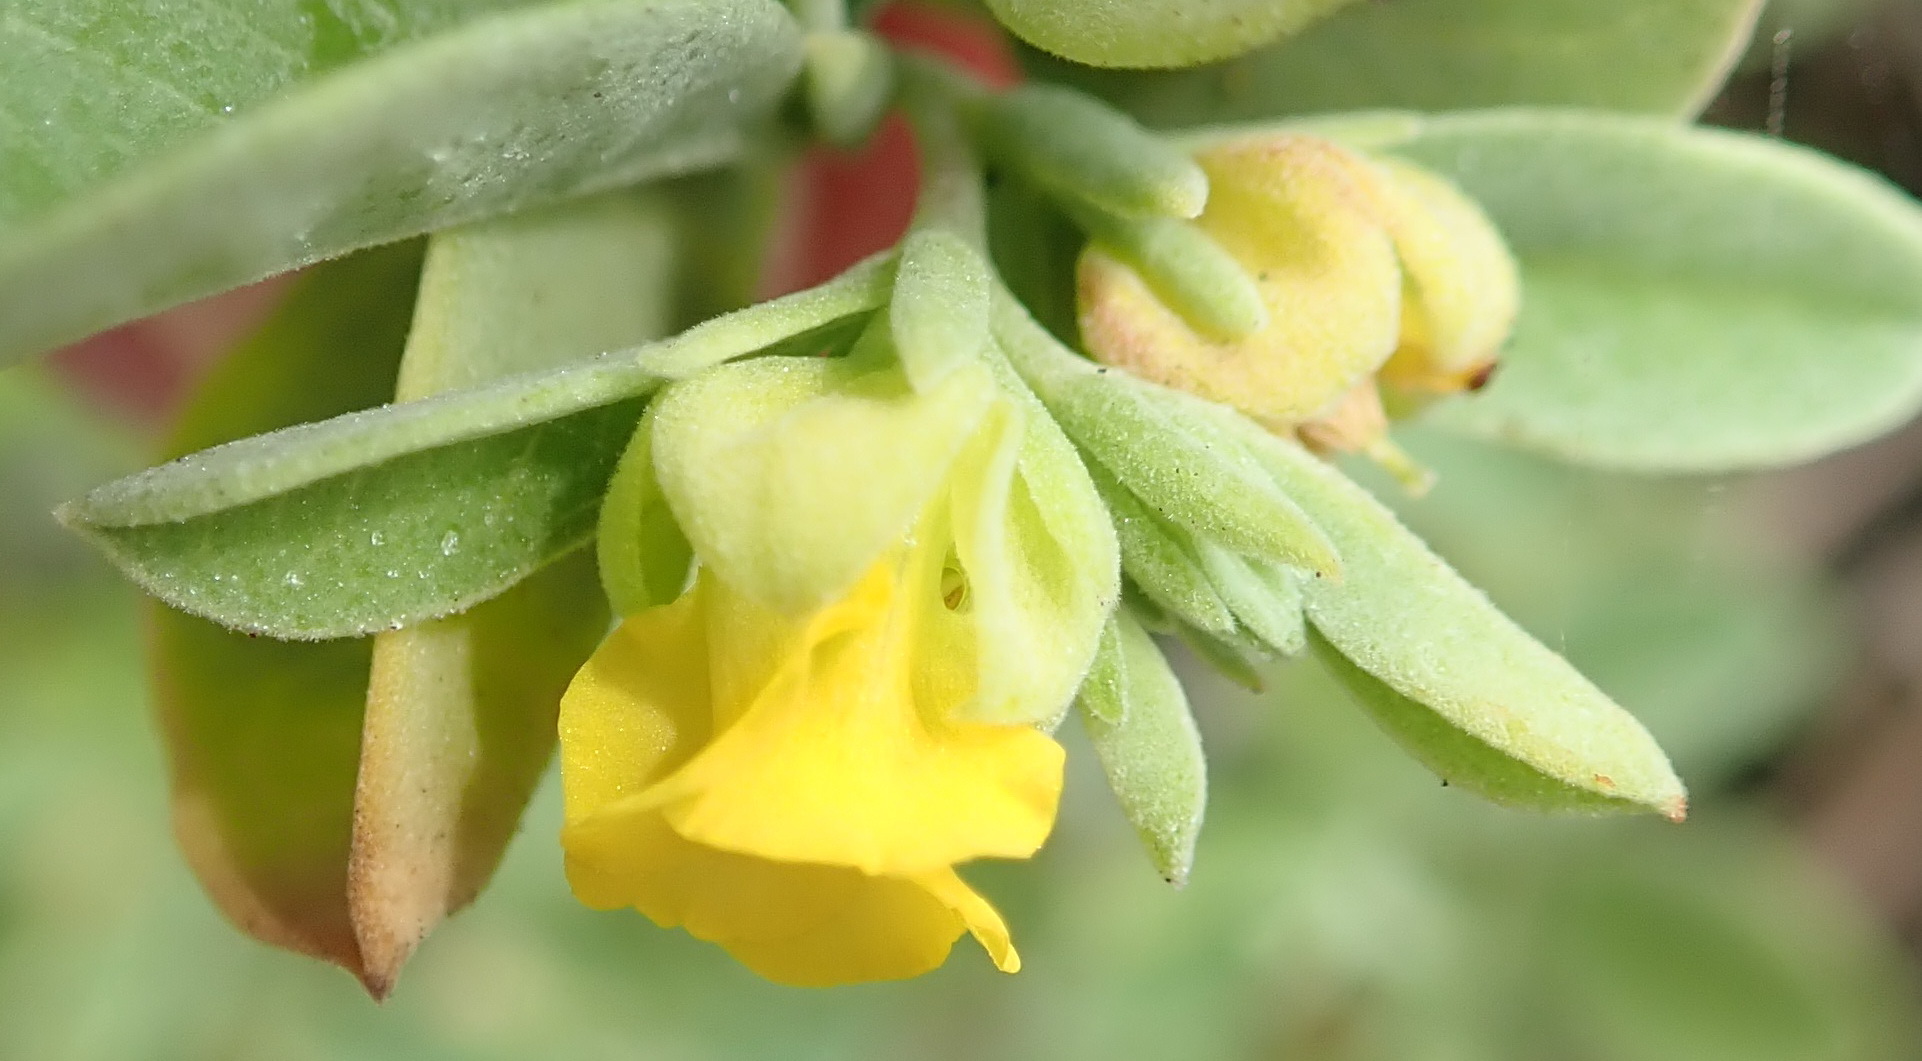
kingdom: Plantae
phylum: Tracheophyta
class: Magnoliopsida
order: Malvales
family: Malvaceae
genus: Hermannia
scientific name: Hermannia lavandulifolia
